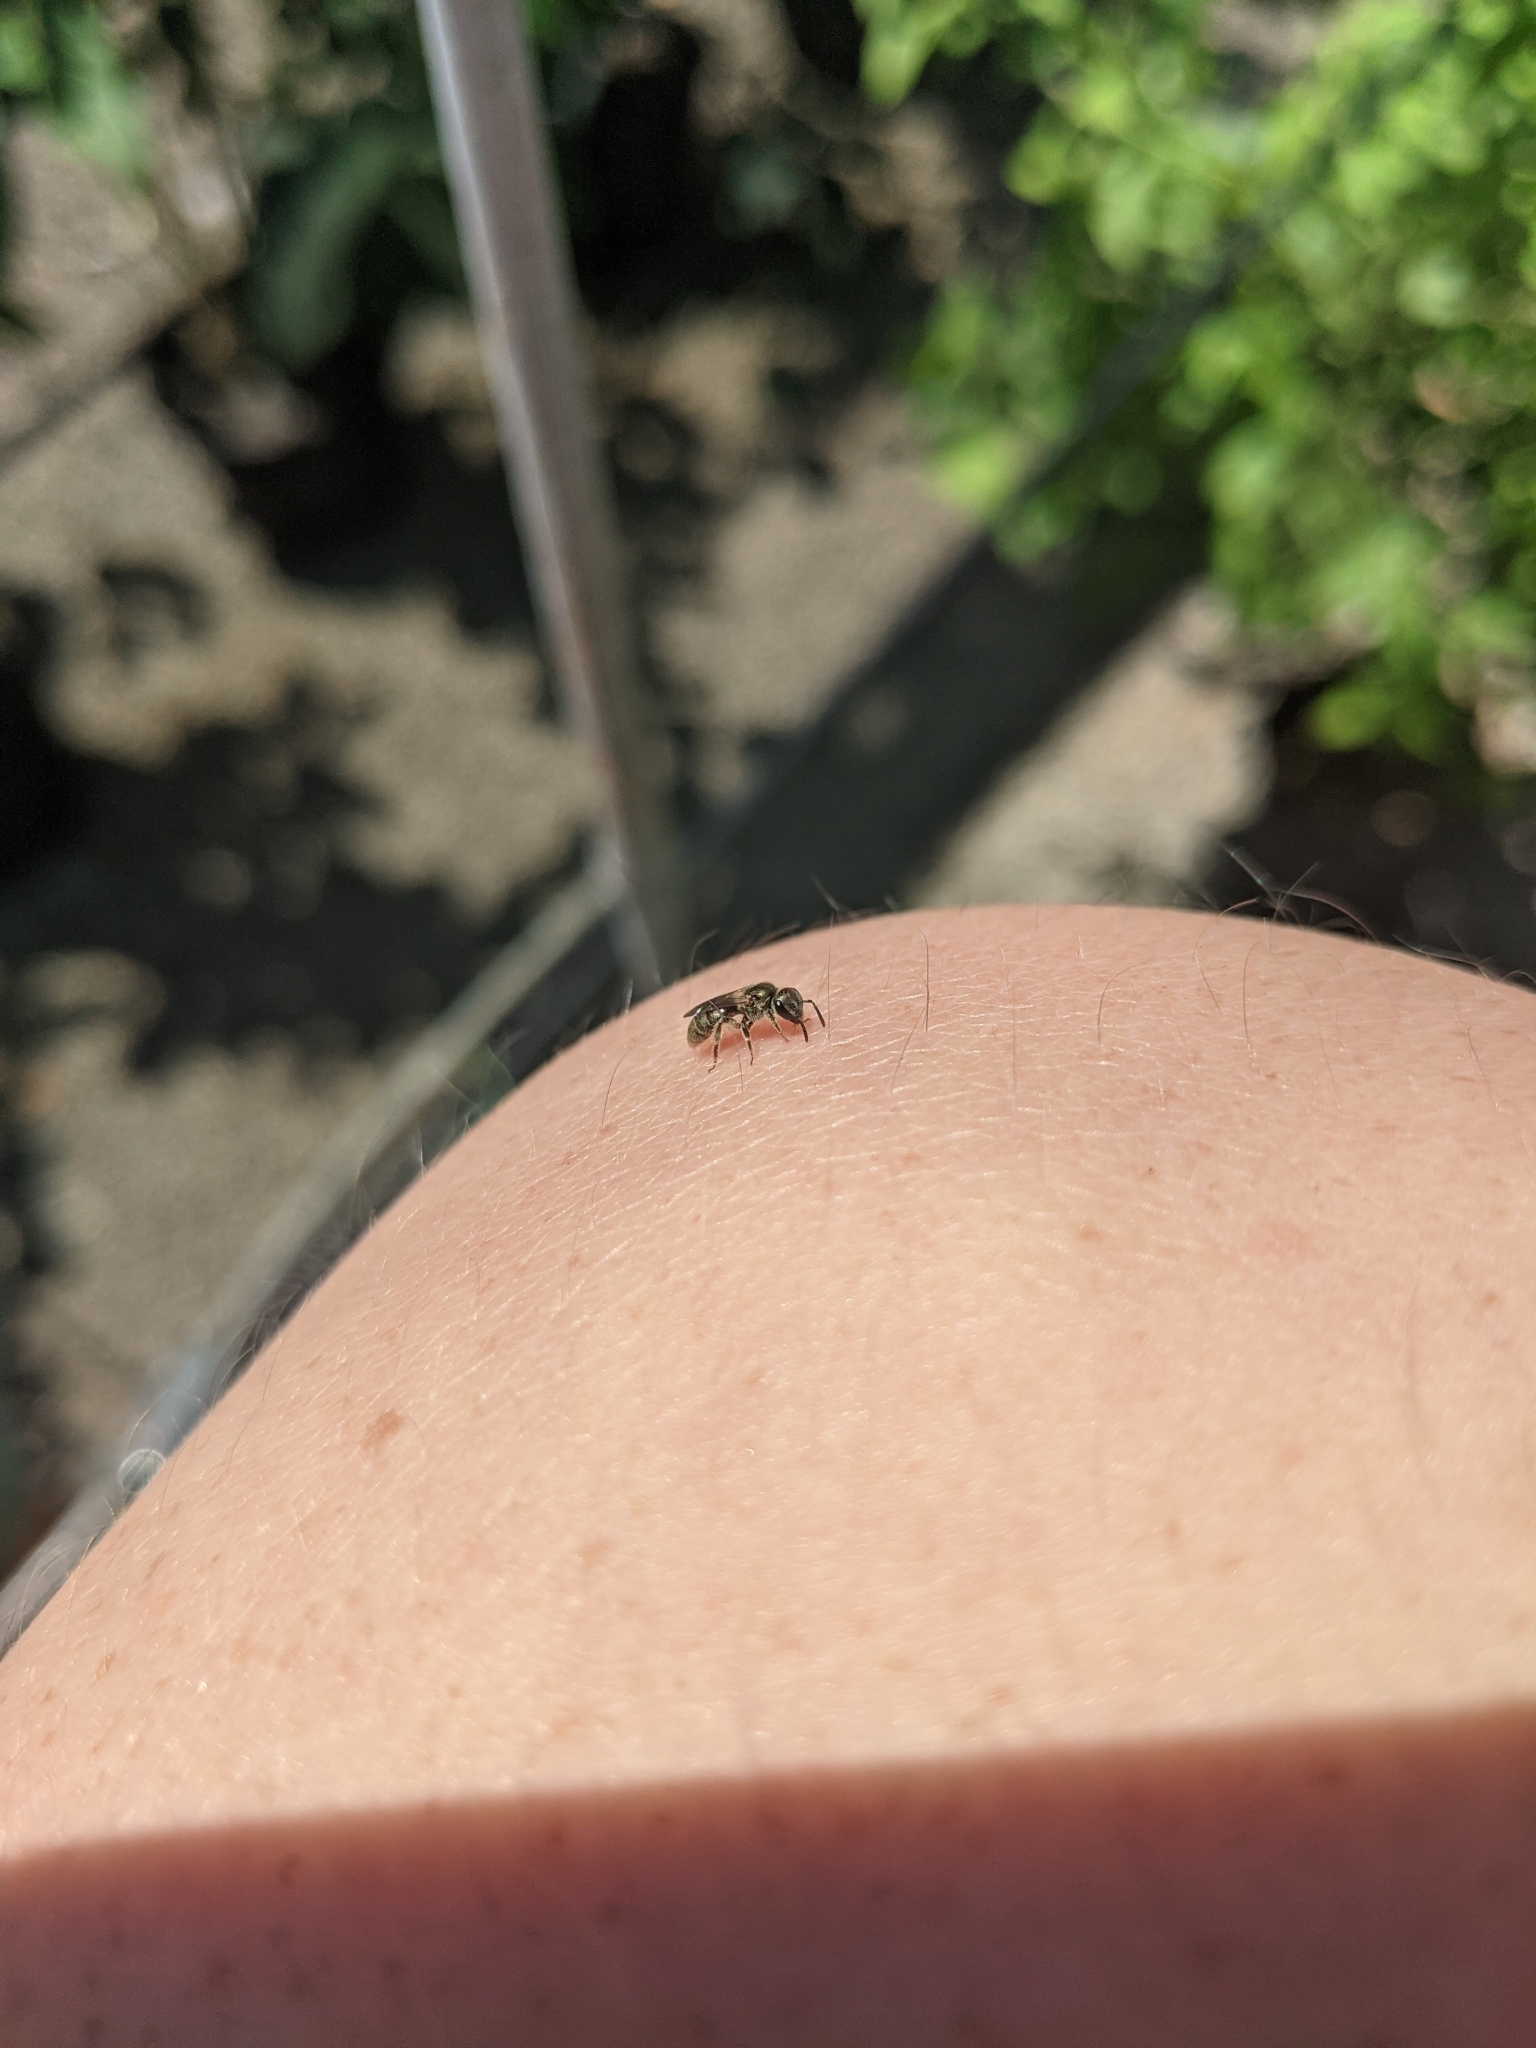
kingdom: Animalia
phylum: Arthropoda
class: Insecta
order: Hymenoptera
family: Halictidae
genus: Dialictus
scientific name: Dialictus
